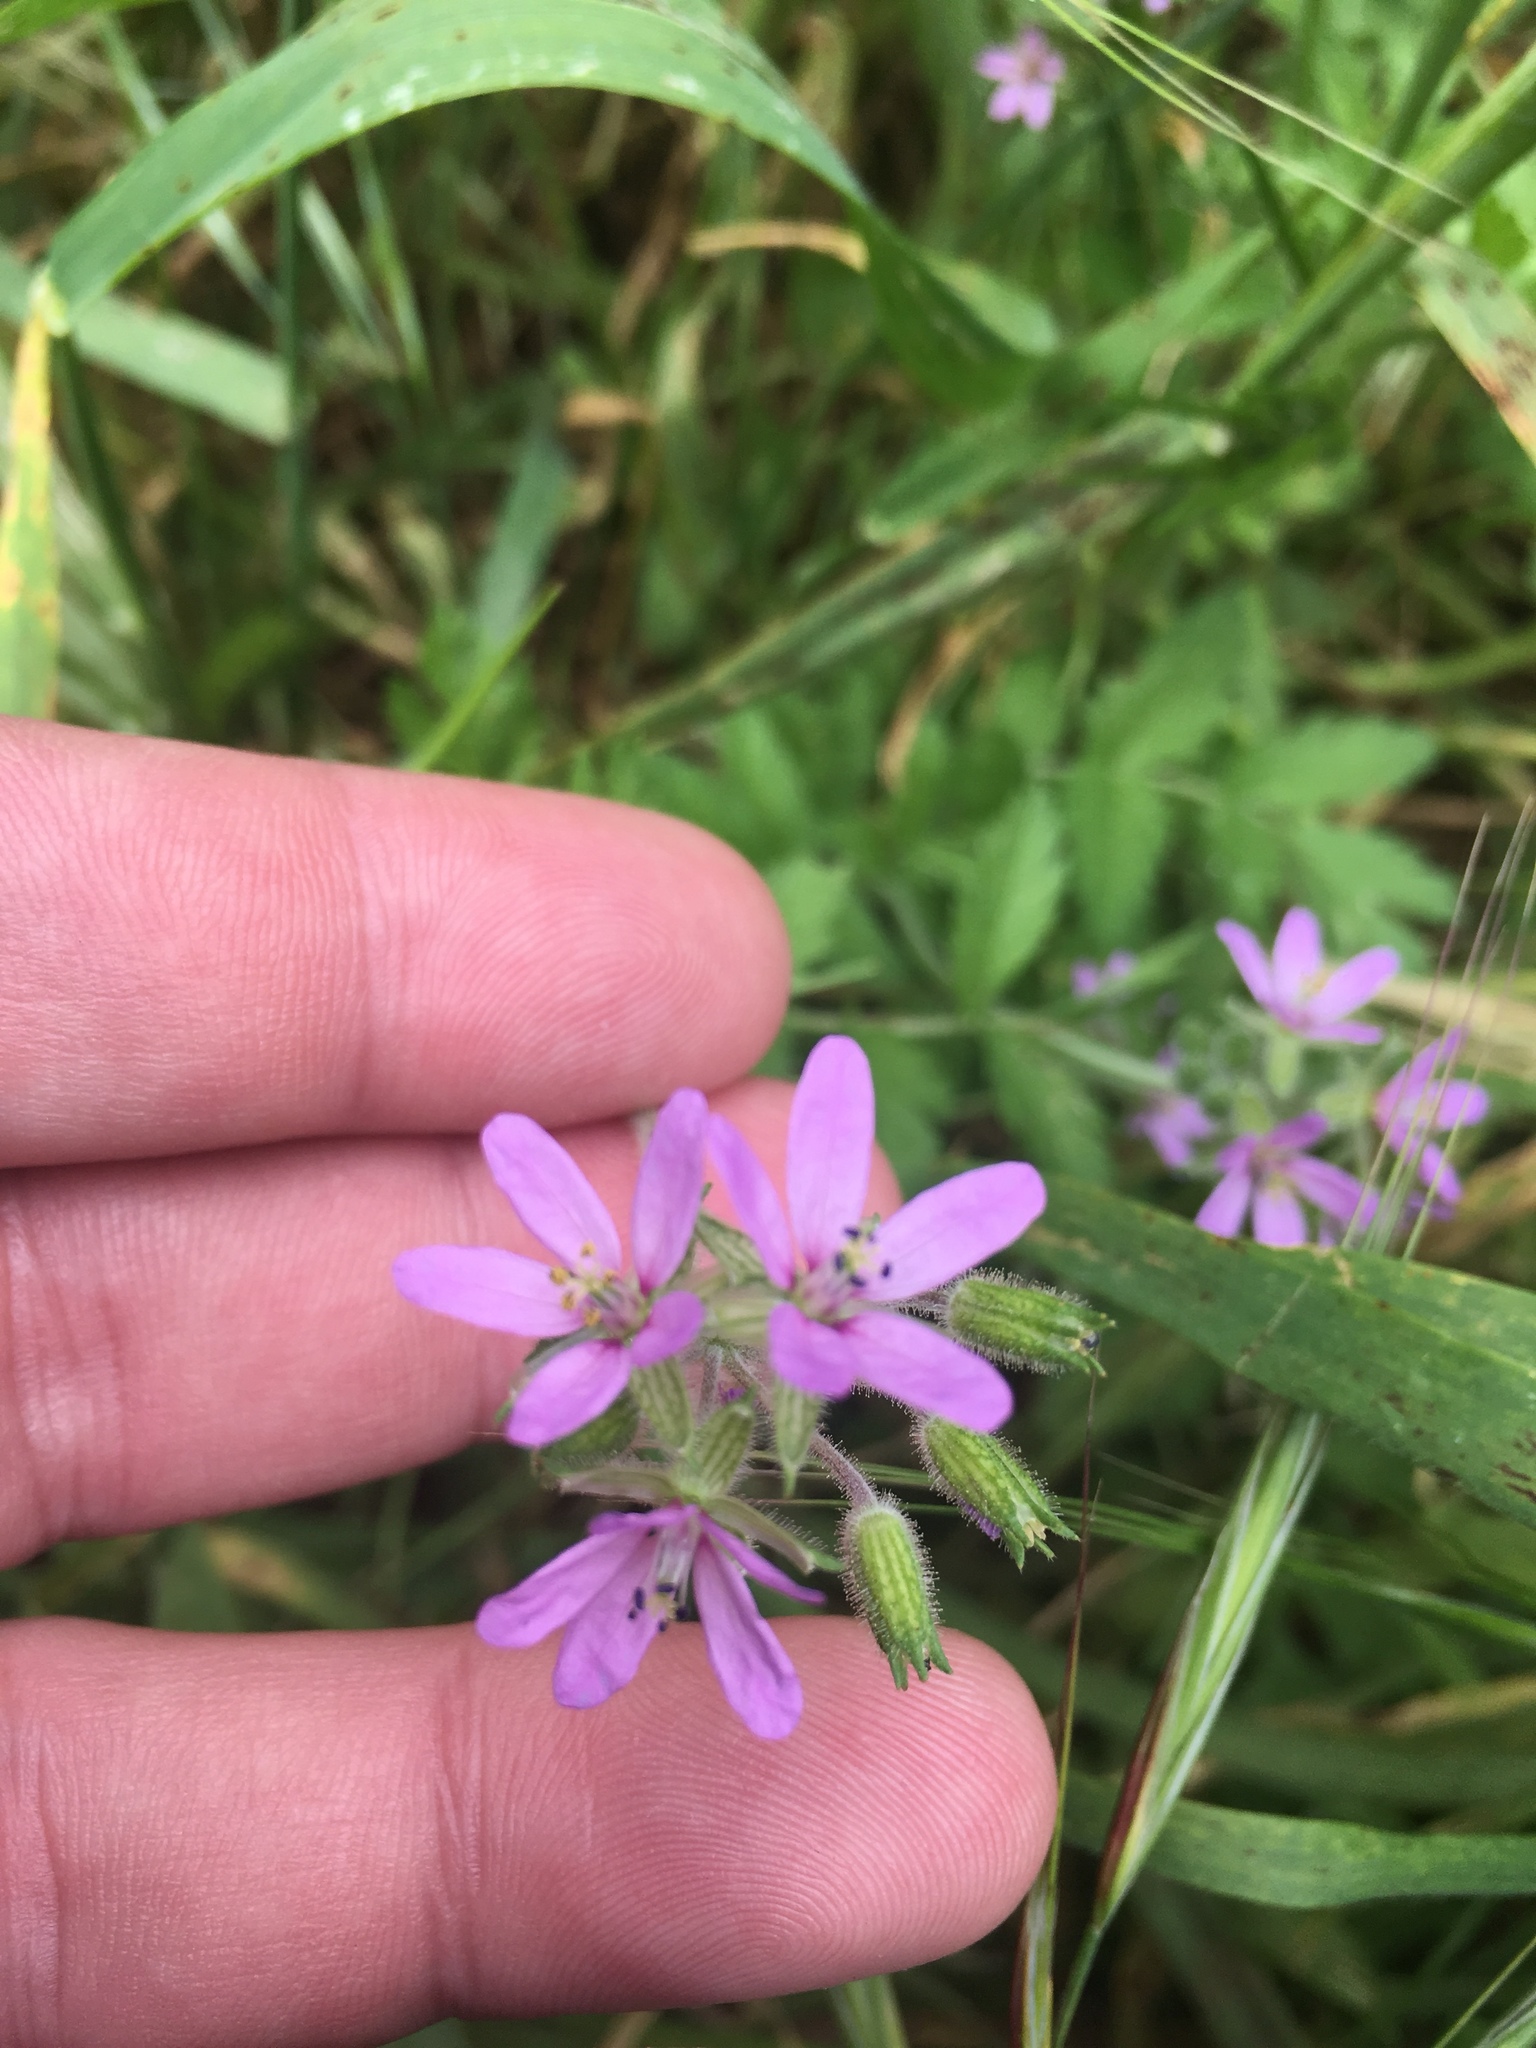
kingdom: Plantae
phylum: Tracheophyta
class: Magnoliopsida
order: Geraniales
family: Geraniaceae
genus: Erodium
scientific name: Erodium moschatum
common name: Musk stork's-bill
